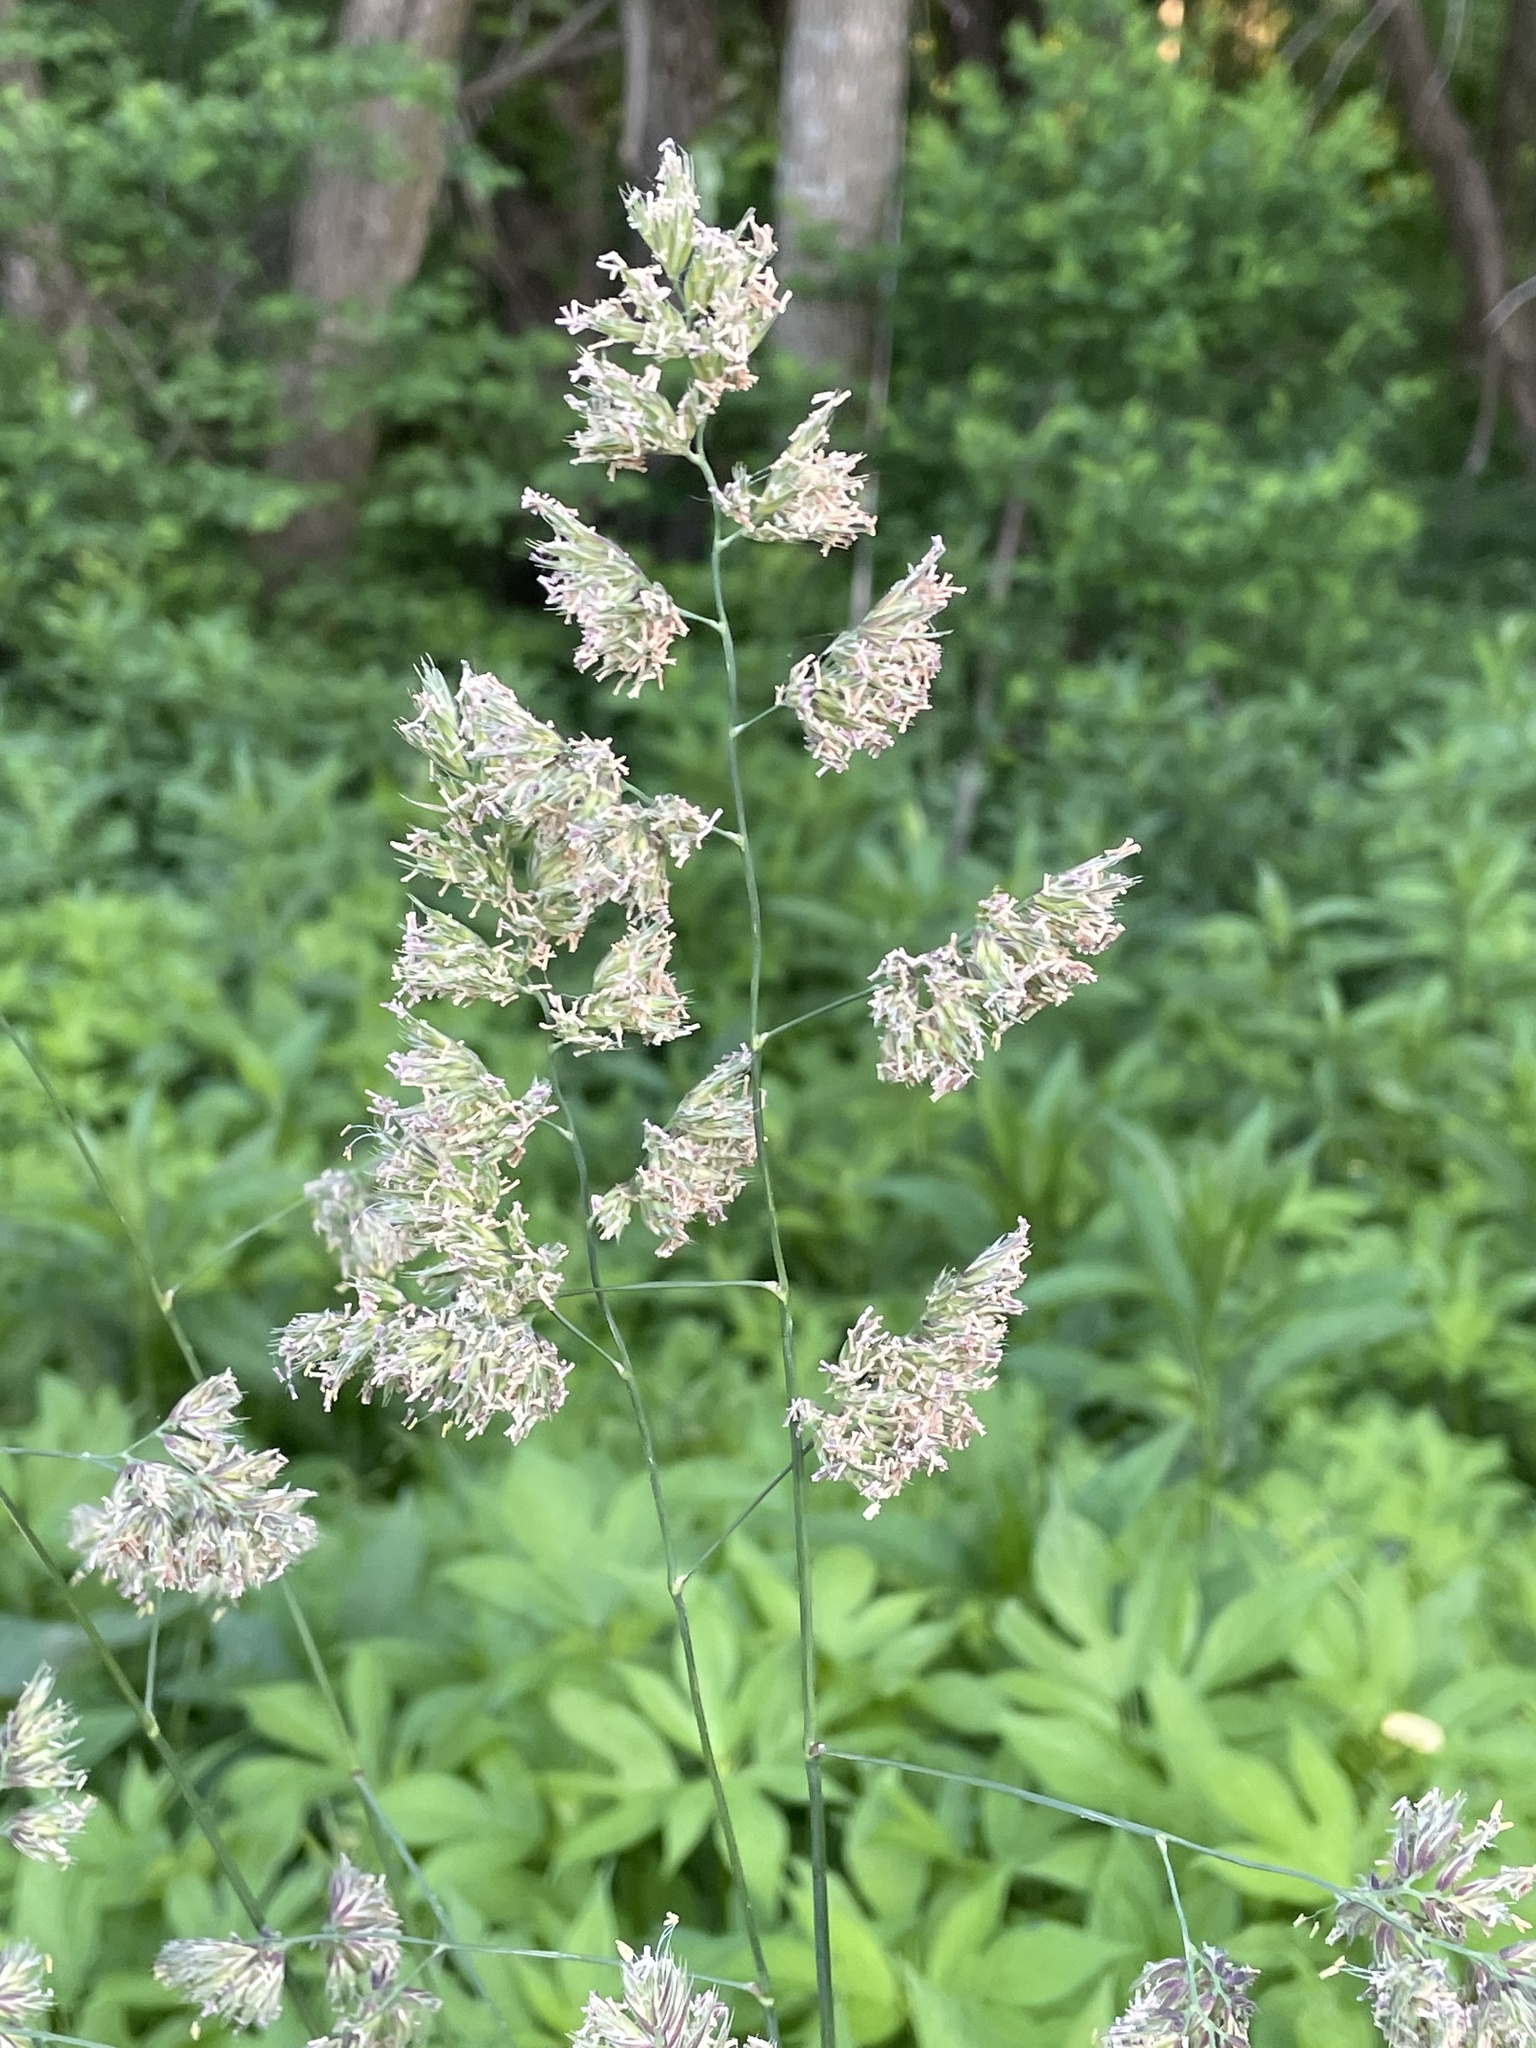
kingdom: Plantae
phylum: Tracheophyta
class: Liliopsida
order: Poales
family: Poaceae
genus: Dactylis
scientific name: Dactylis glomerata
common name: Orchardgrass
